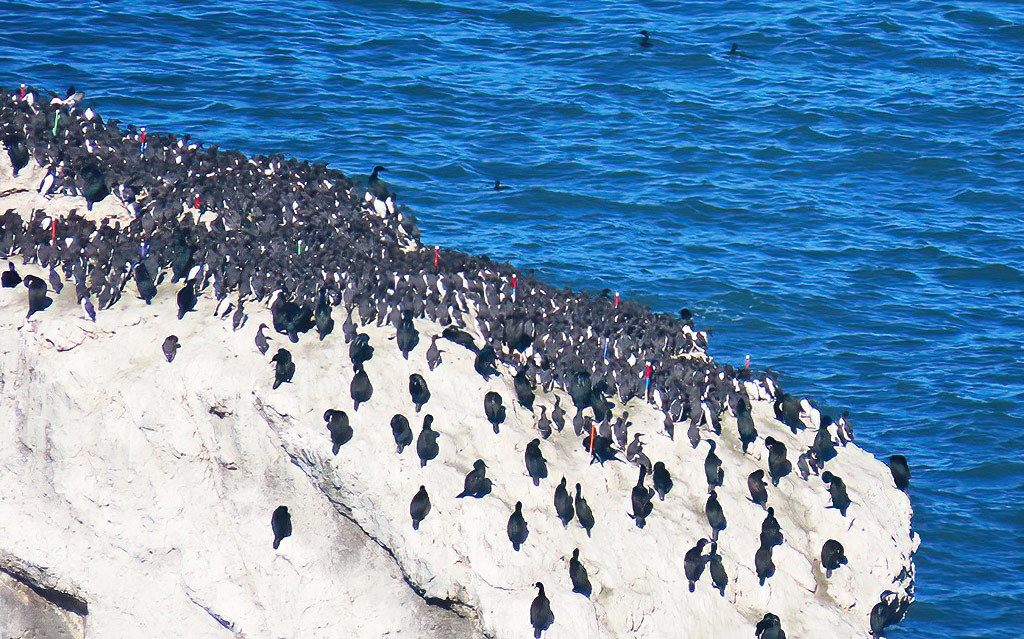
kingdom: Animalia
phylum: Chordata
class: Aves
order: Charadriiformes
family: Alcidae
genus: Uria
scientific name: Uria aalge
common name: Common murre
